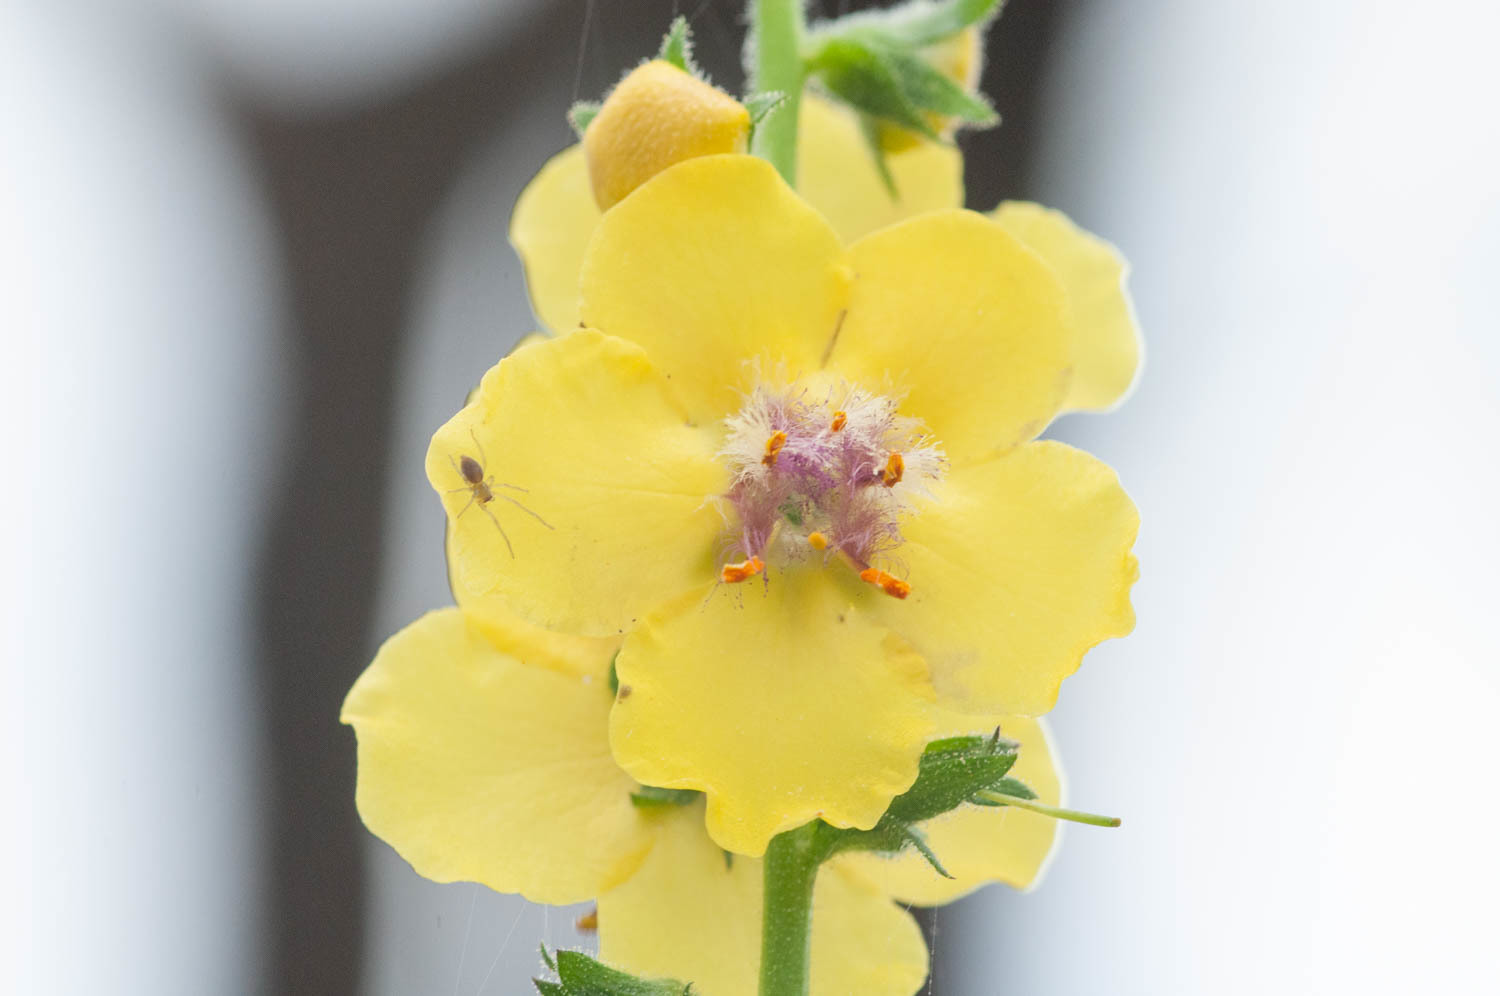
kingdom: Plantae
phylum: Tracheophyta
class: Magnoliopsida
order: Lamiales
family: Scrophulariaceae
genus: Verbascum
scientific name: Verbascum virgatum
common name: Twiggy mullein
